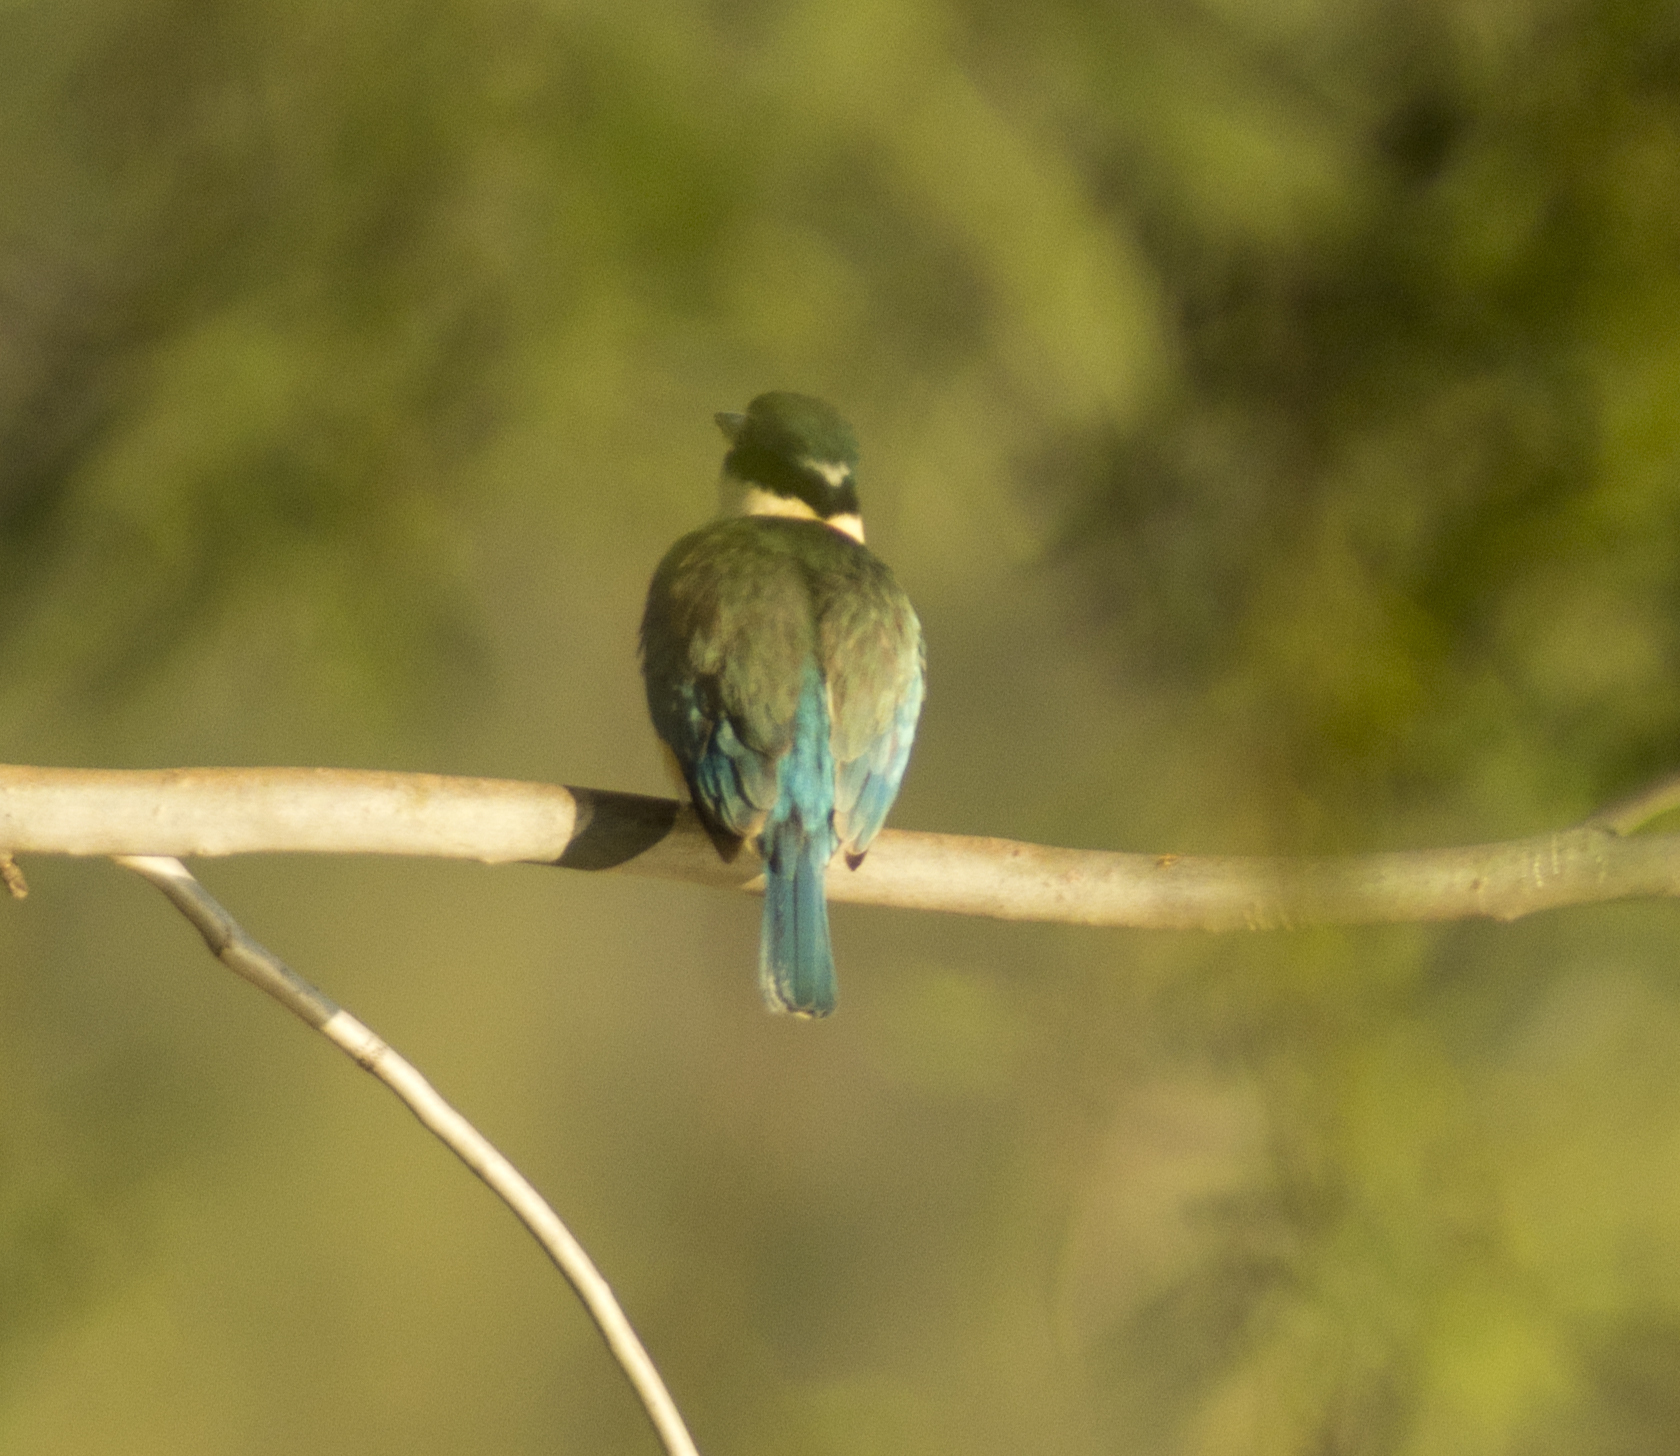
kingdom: Animalia
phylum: Chordata
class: Aves
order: Coraciiformes
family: Alcedinidae
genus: Todiramphus
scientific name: Todiramphus sanctus
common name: Sacred kingfisher
